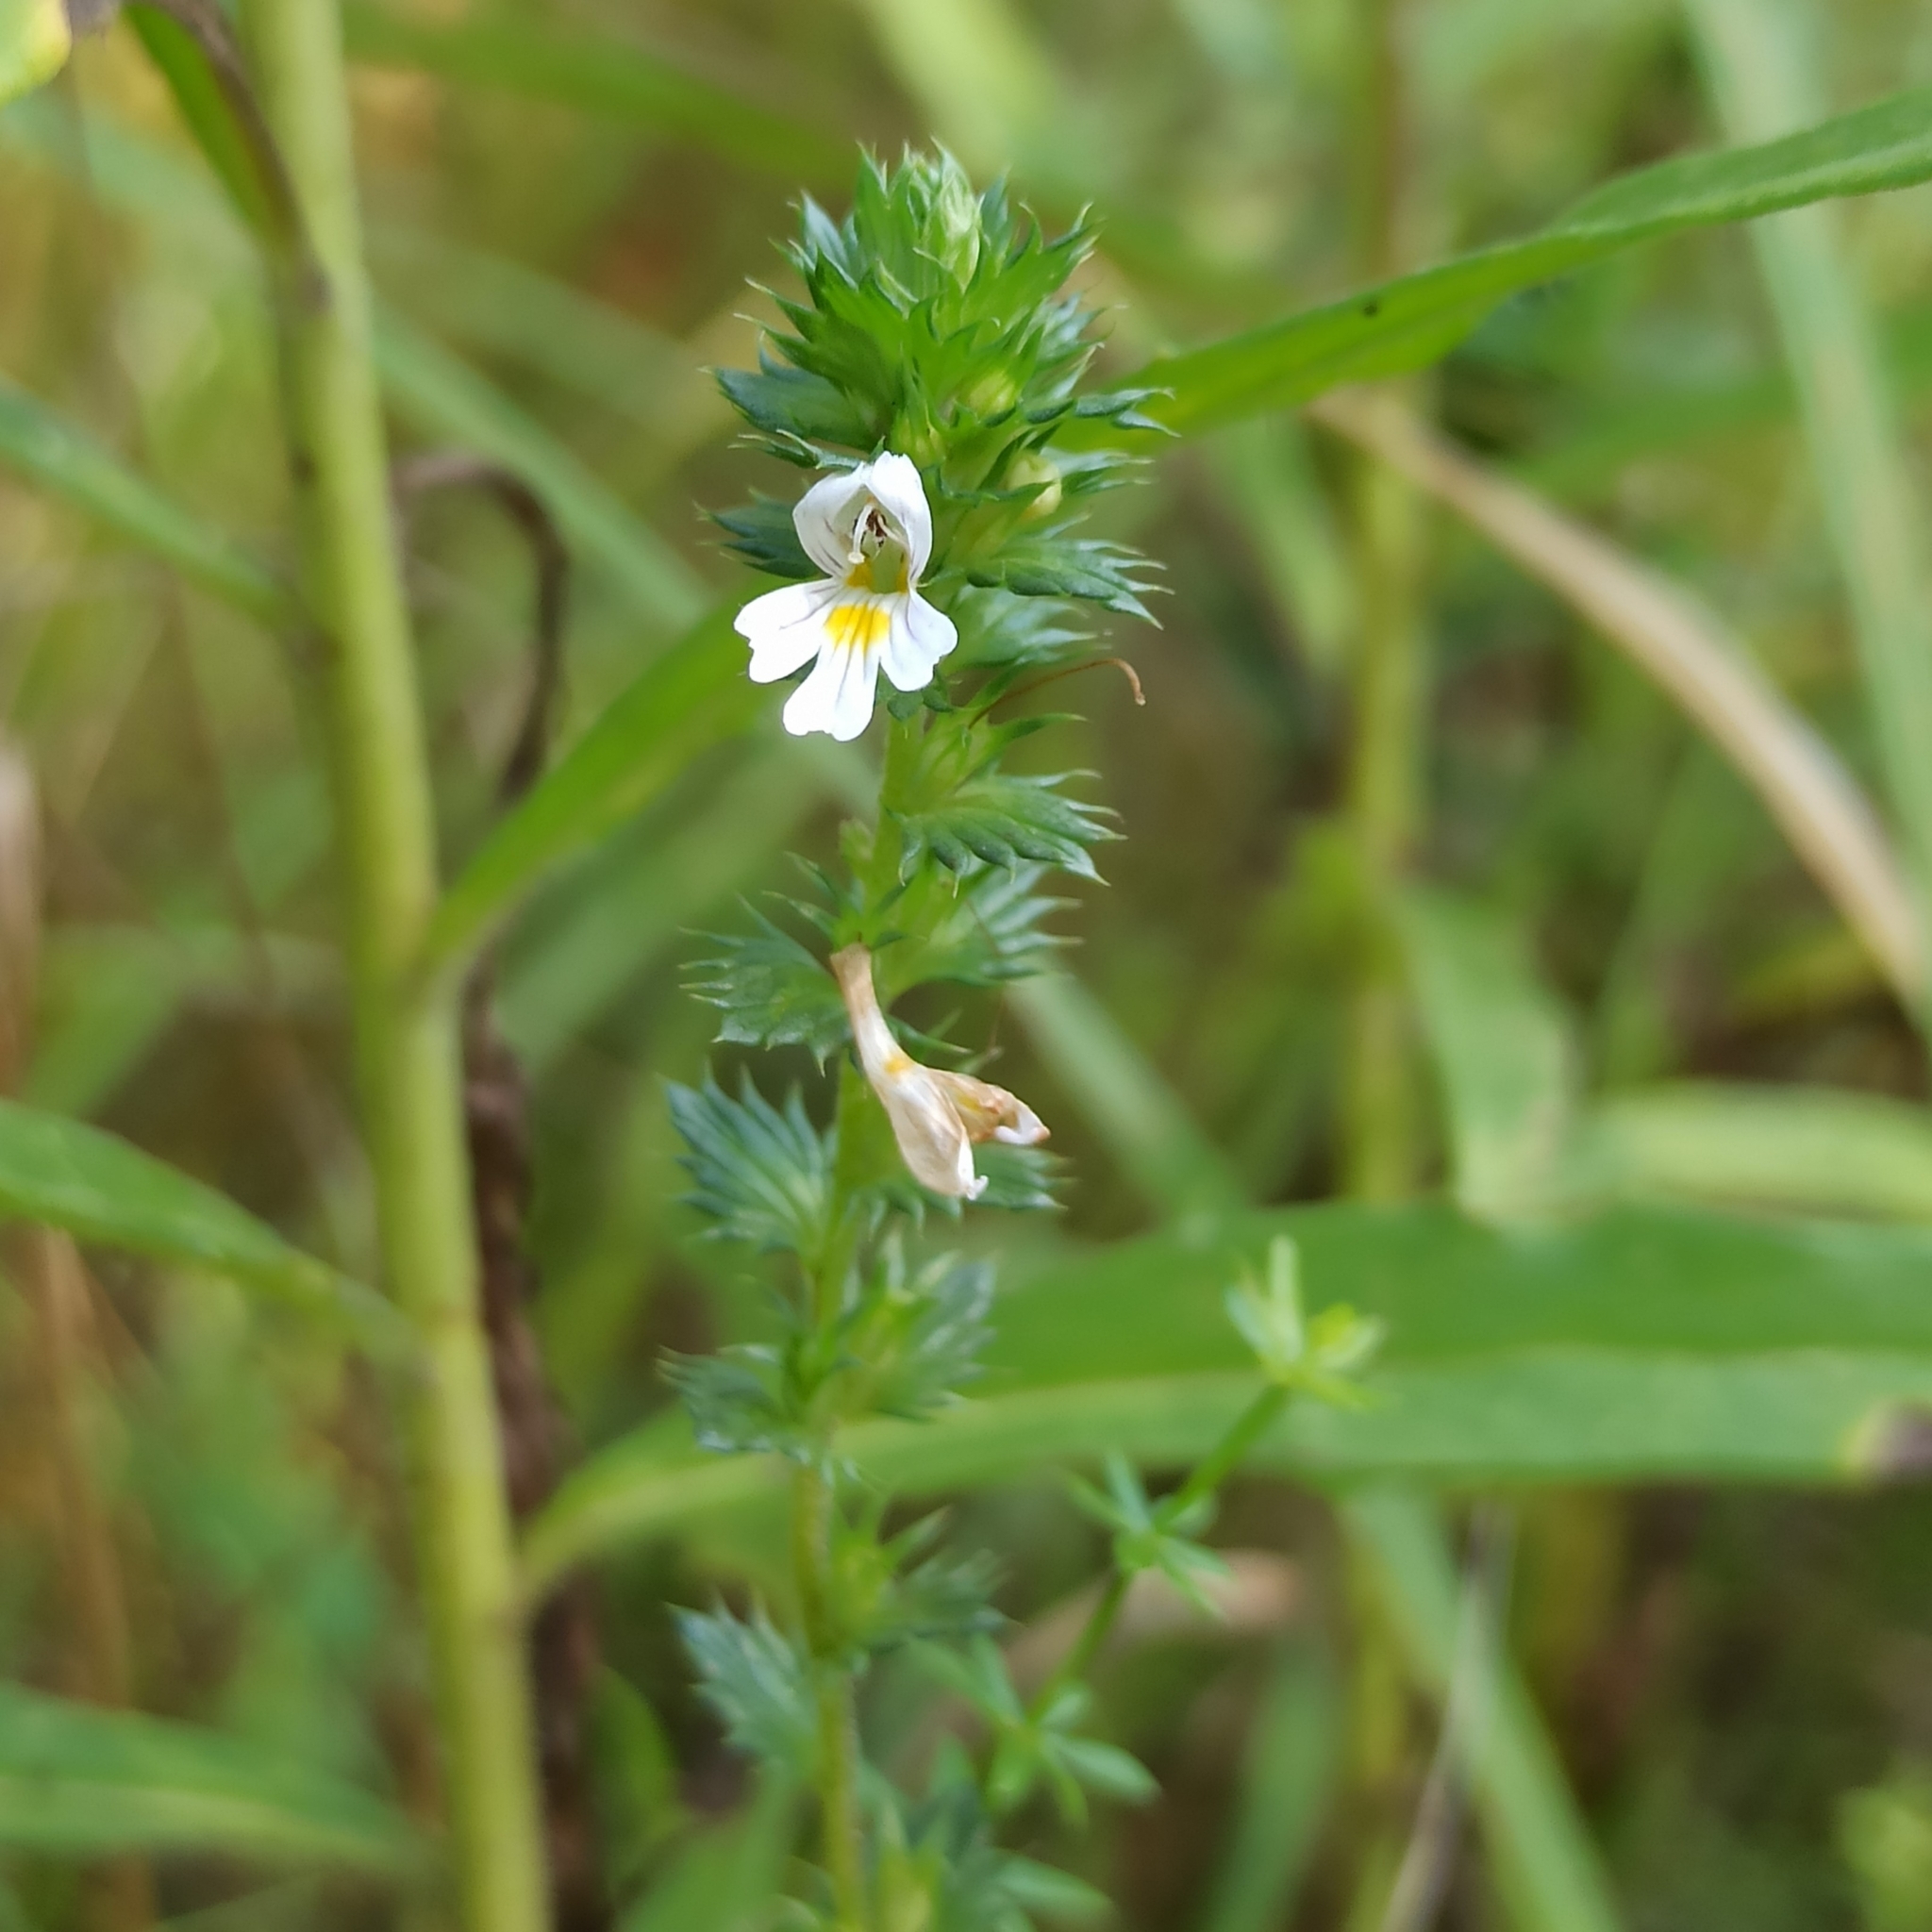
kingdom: Plantae
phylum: Tracheophyta
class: Magnoliopsida
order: Lamiales
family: Orobanchaceae
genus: Euphrasia
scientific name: Euphrasia stricta
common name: Drug eyebright
